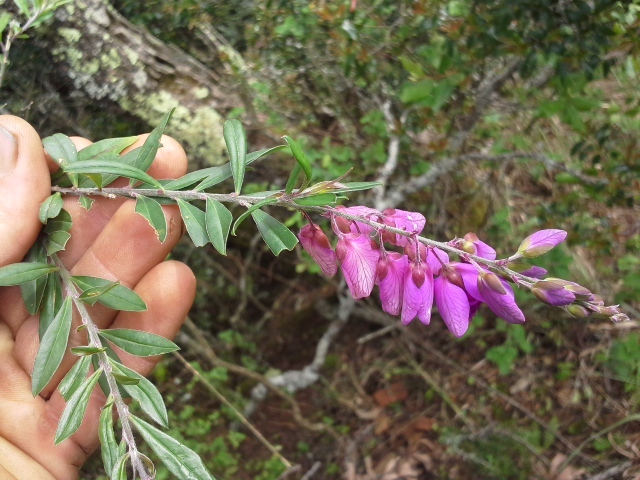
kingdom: Plantae
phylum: Tracheophyta
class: Magnoliopsida
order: Fabales
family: Polygalaceae
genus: Polygala
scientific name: Polygala virgata
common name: Milkwort
